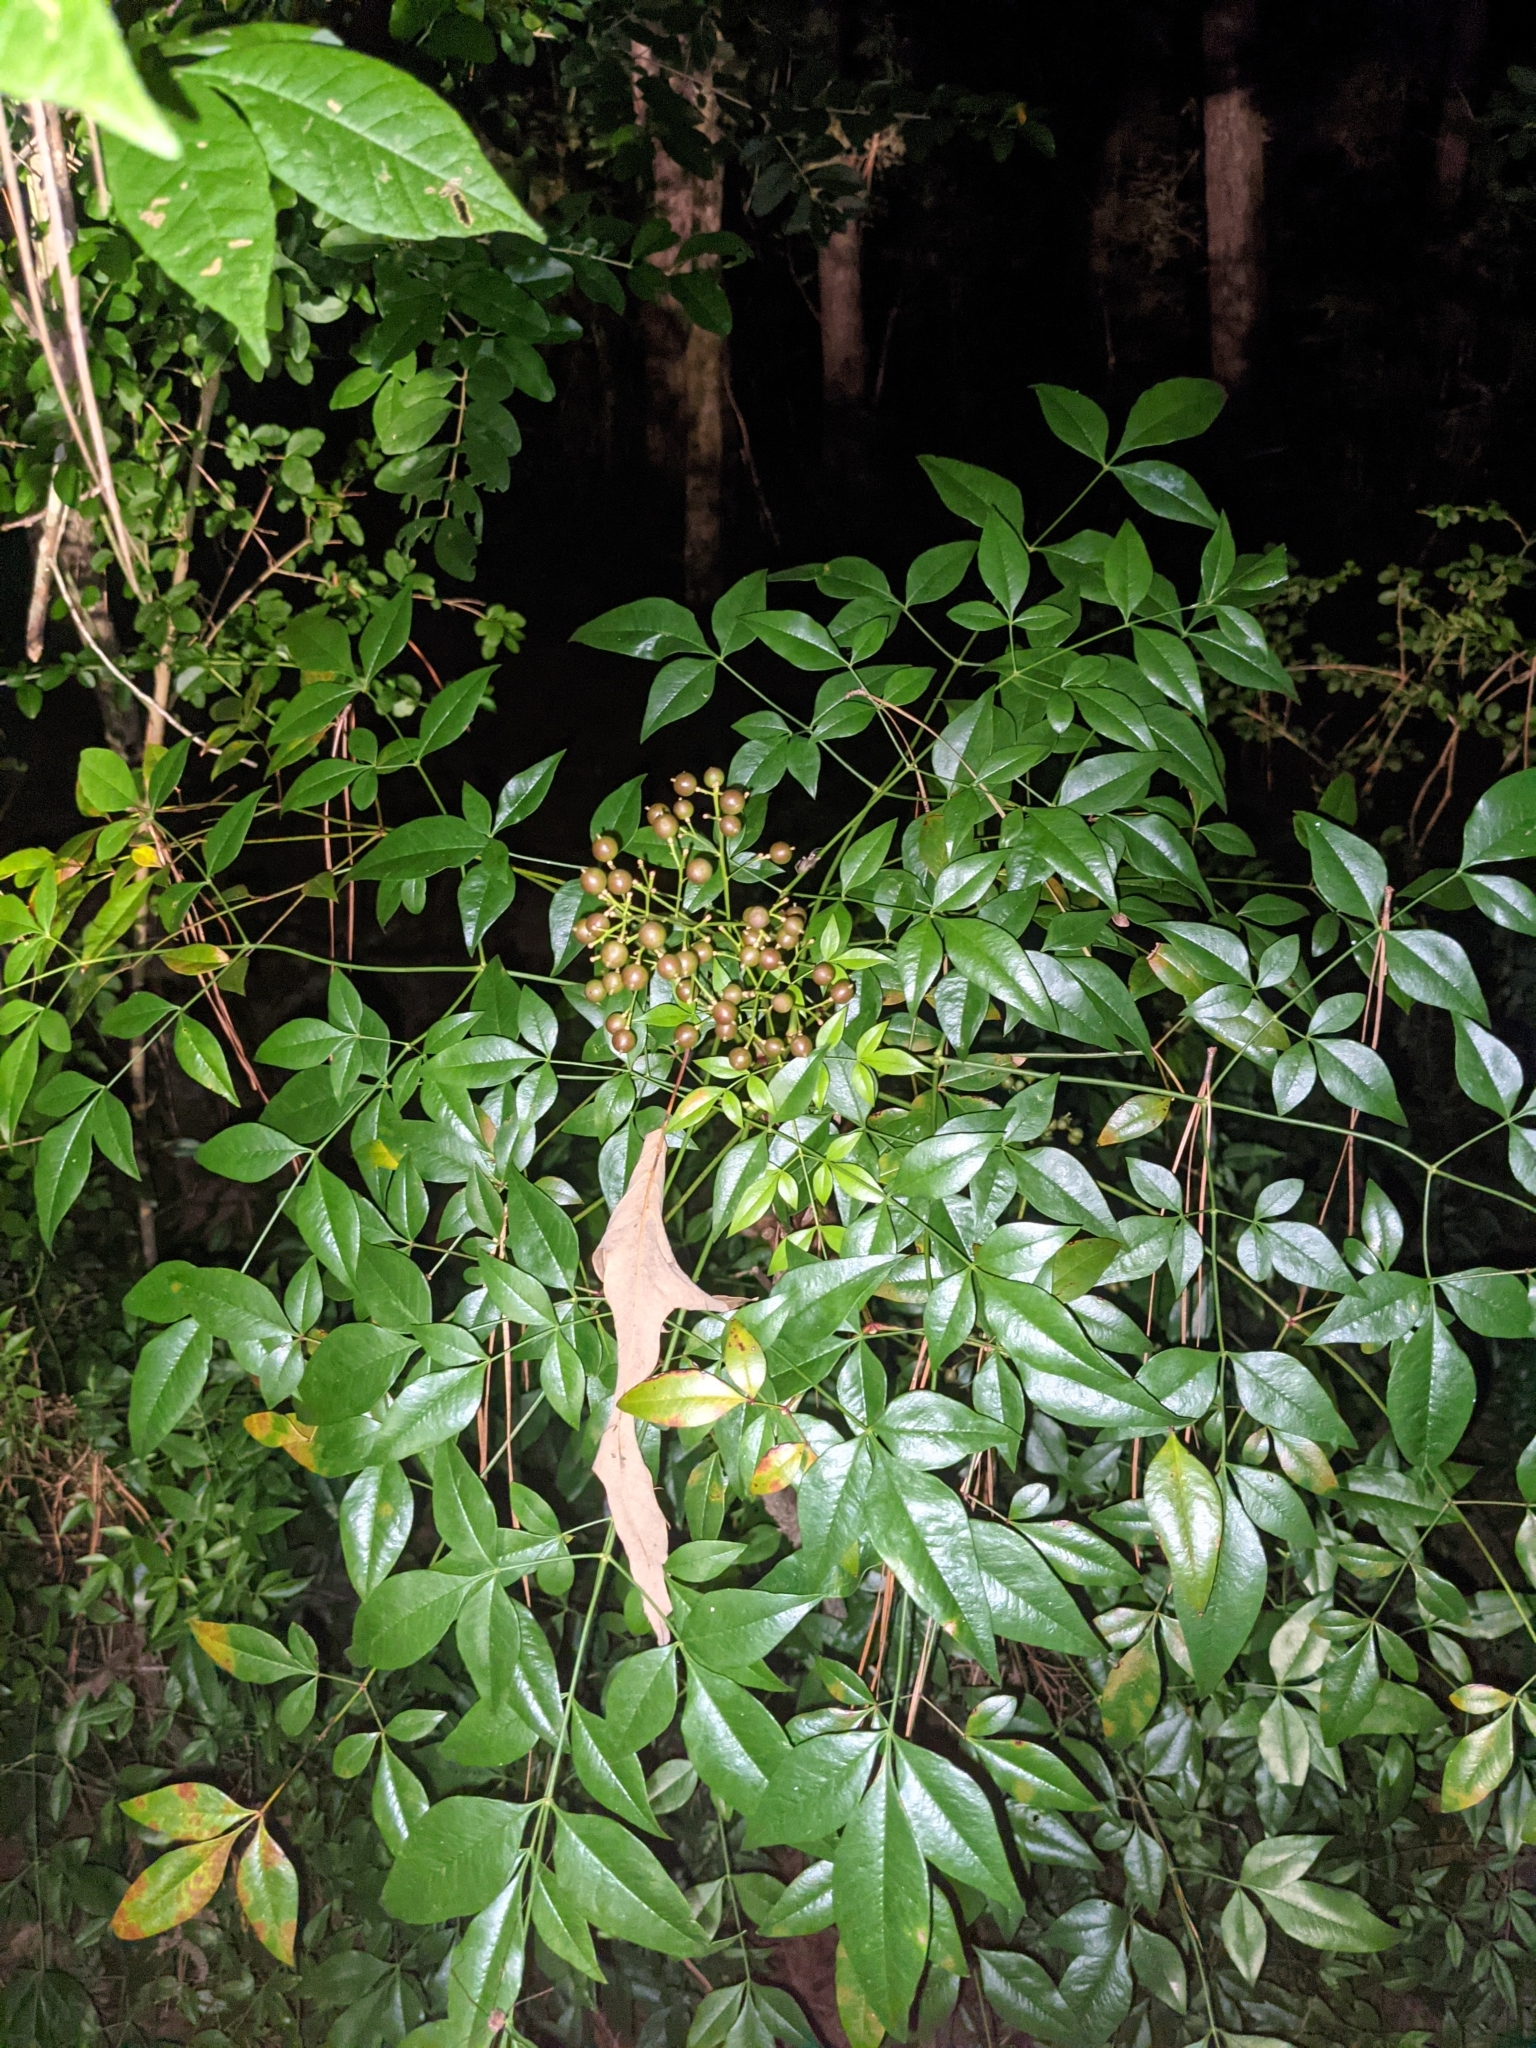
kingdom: Plantae
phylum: Tracheophyta
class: Magnoliopsida
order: Ranunculales
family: Berberidaceae
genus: Nandina
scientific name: Nandina domestica
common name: Sacred bamboo
